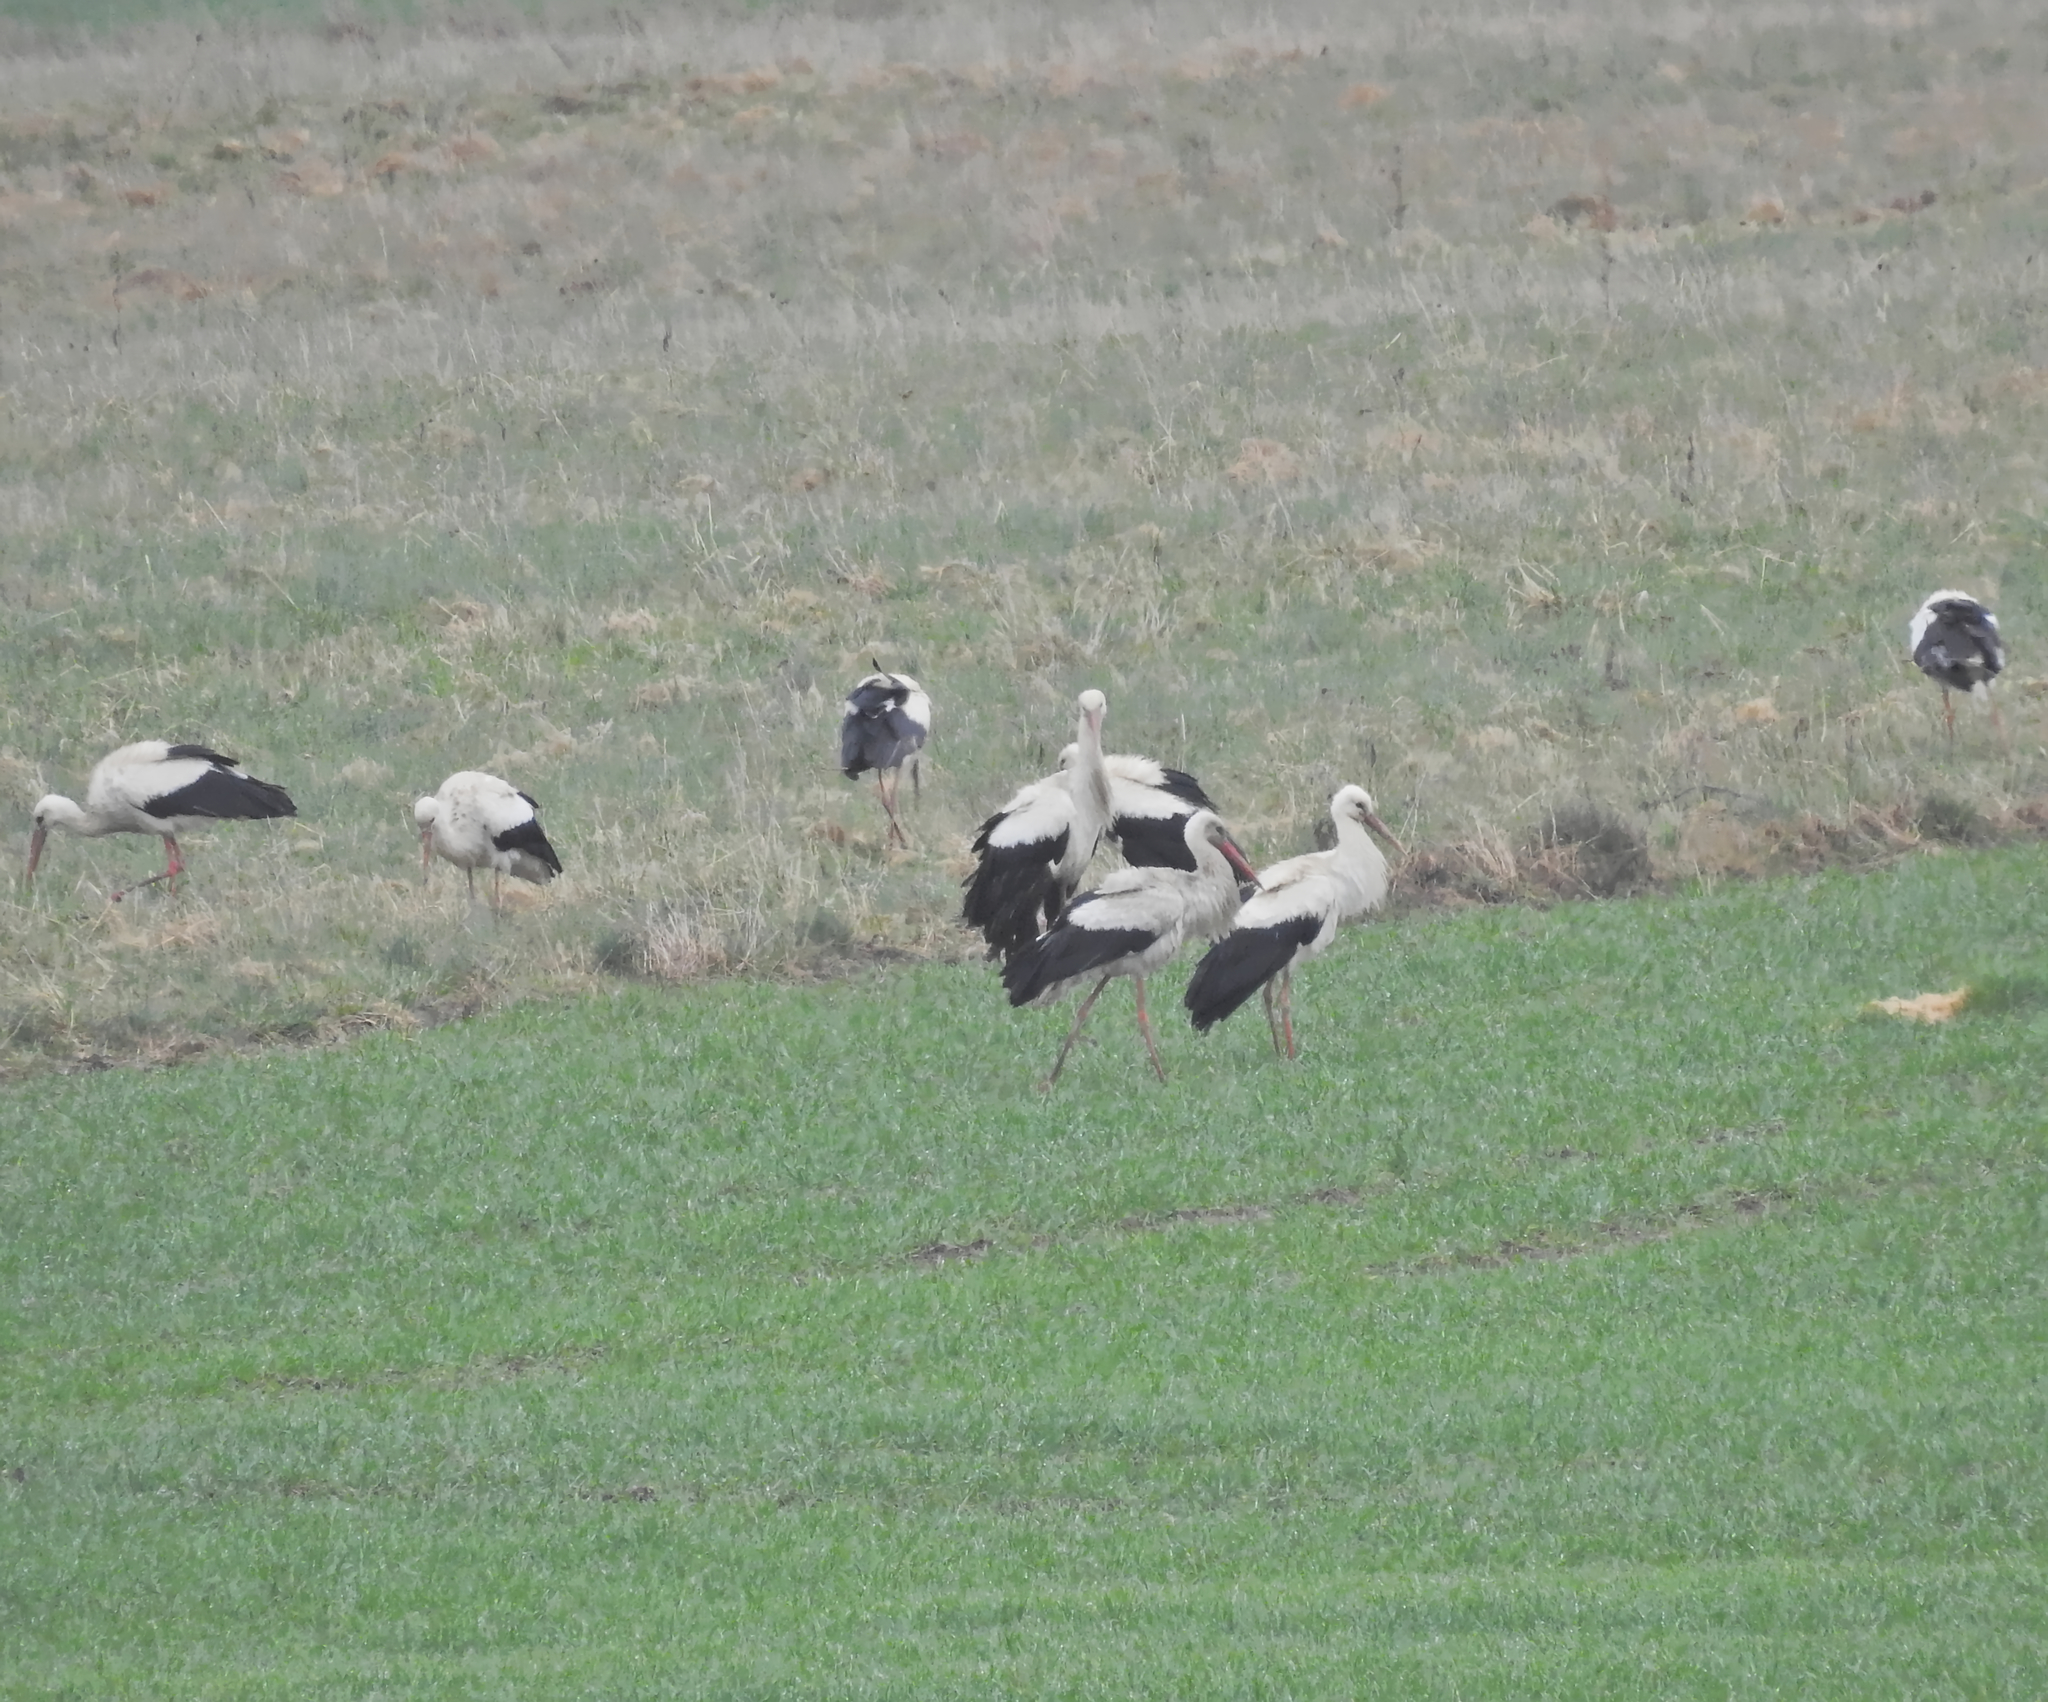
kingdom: Animalia
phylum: Chordata
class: Aves
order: Ciconiiformes
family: Ciconiidae
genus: Ciconia
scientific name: Ciconia ciconia
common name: White stork
